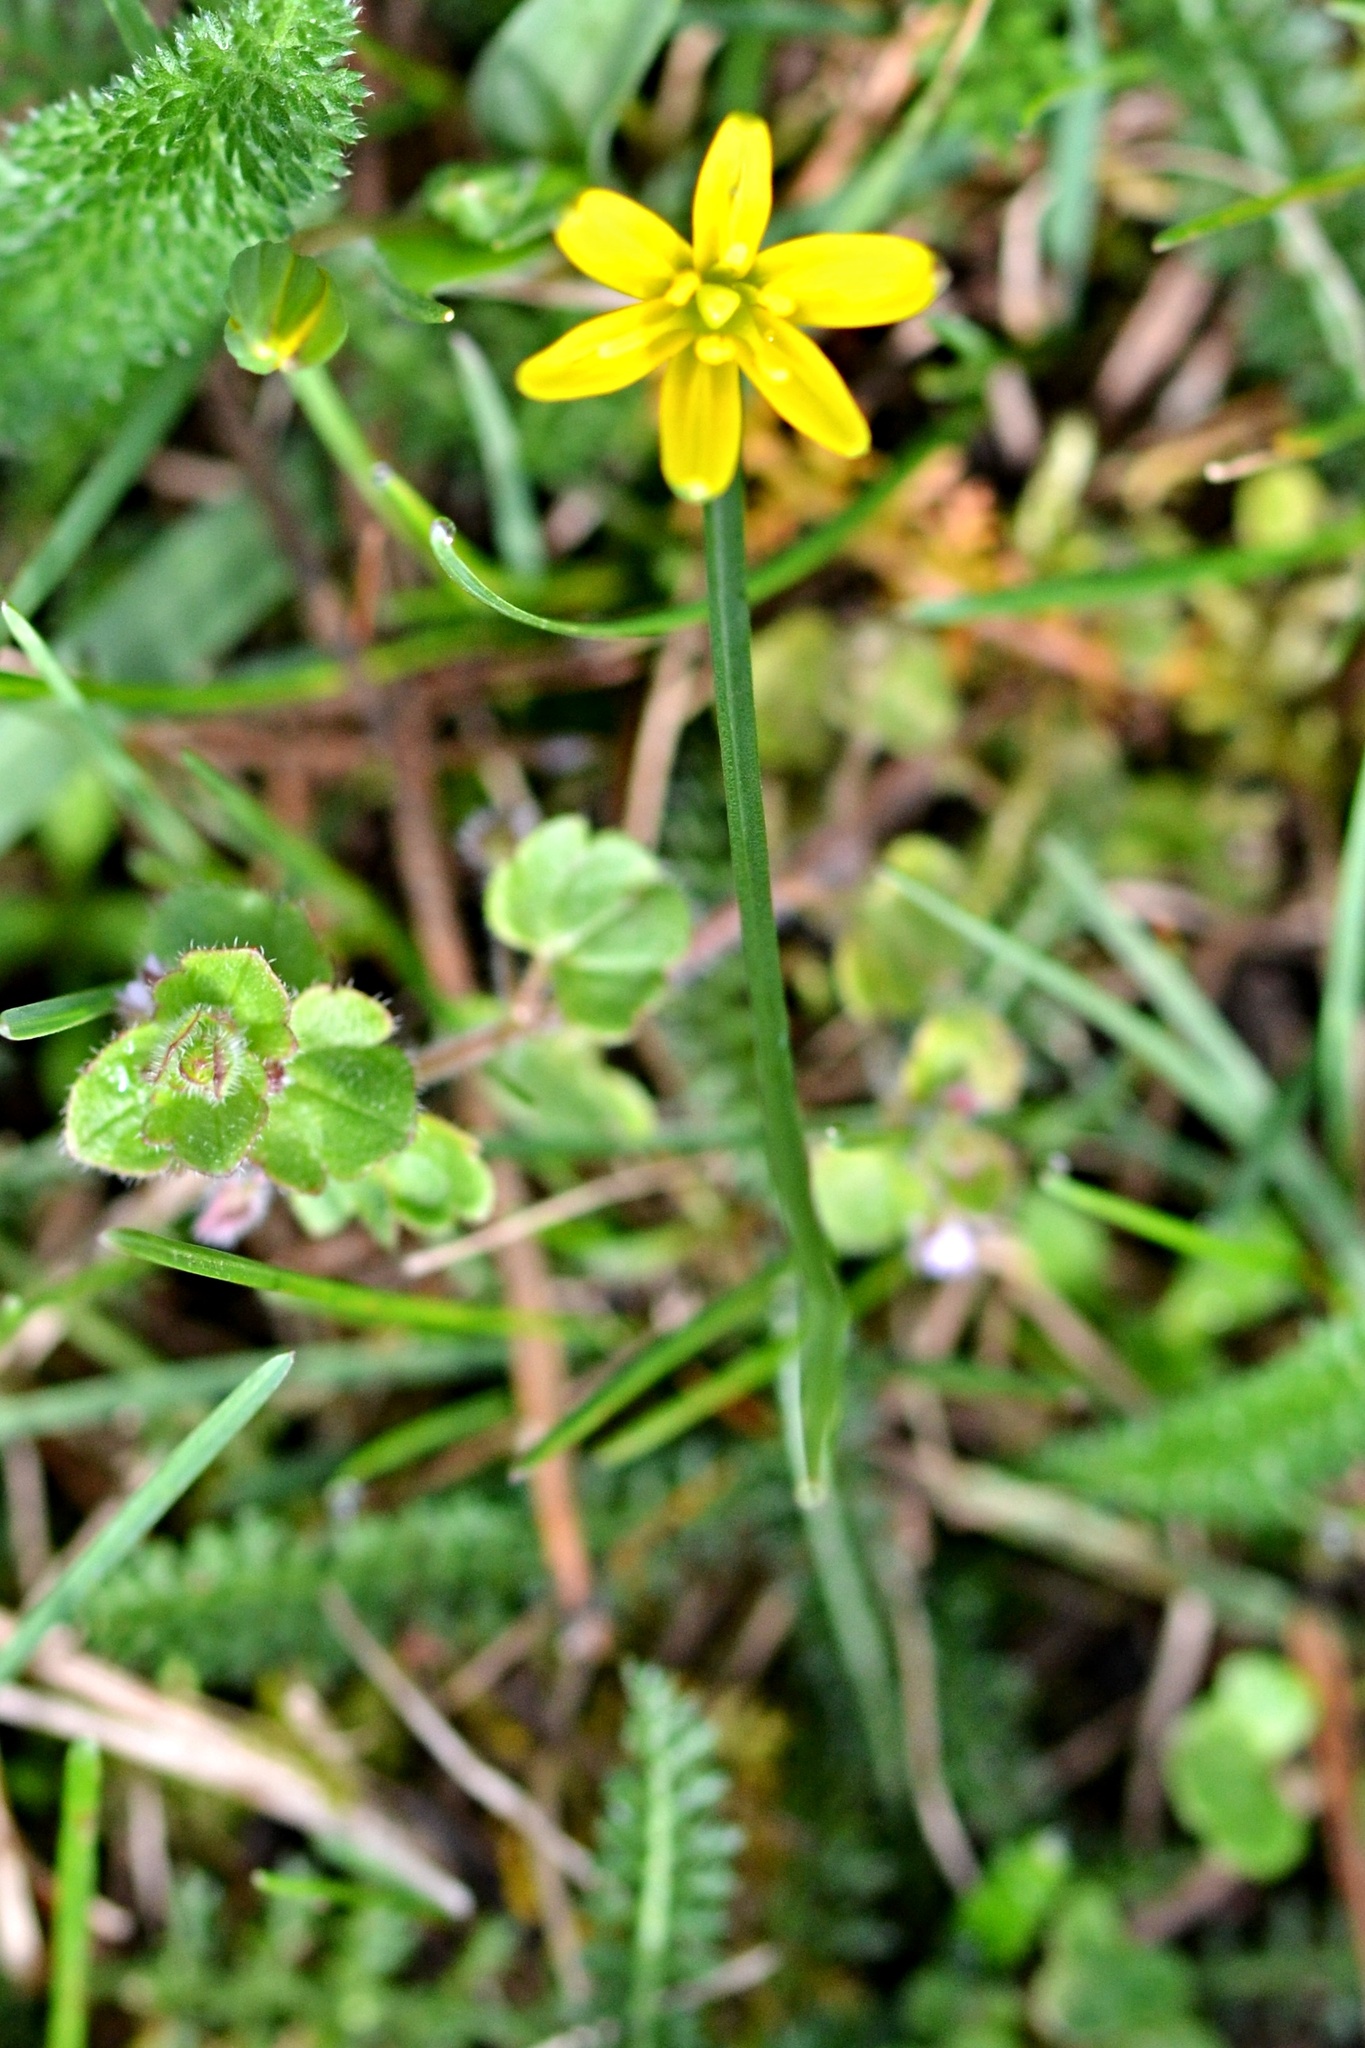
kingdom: Plantae
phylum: Tracheophyta
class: Liliopsida
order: Liliales
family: Liliaceae
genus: Gagea
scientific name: Gagea lutea
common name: Yellow star-of-bethlehem
